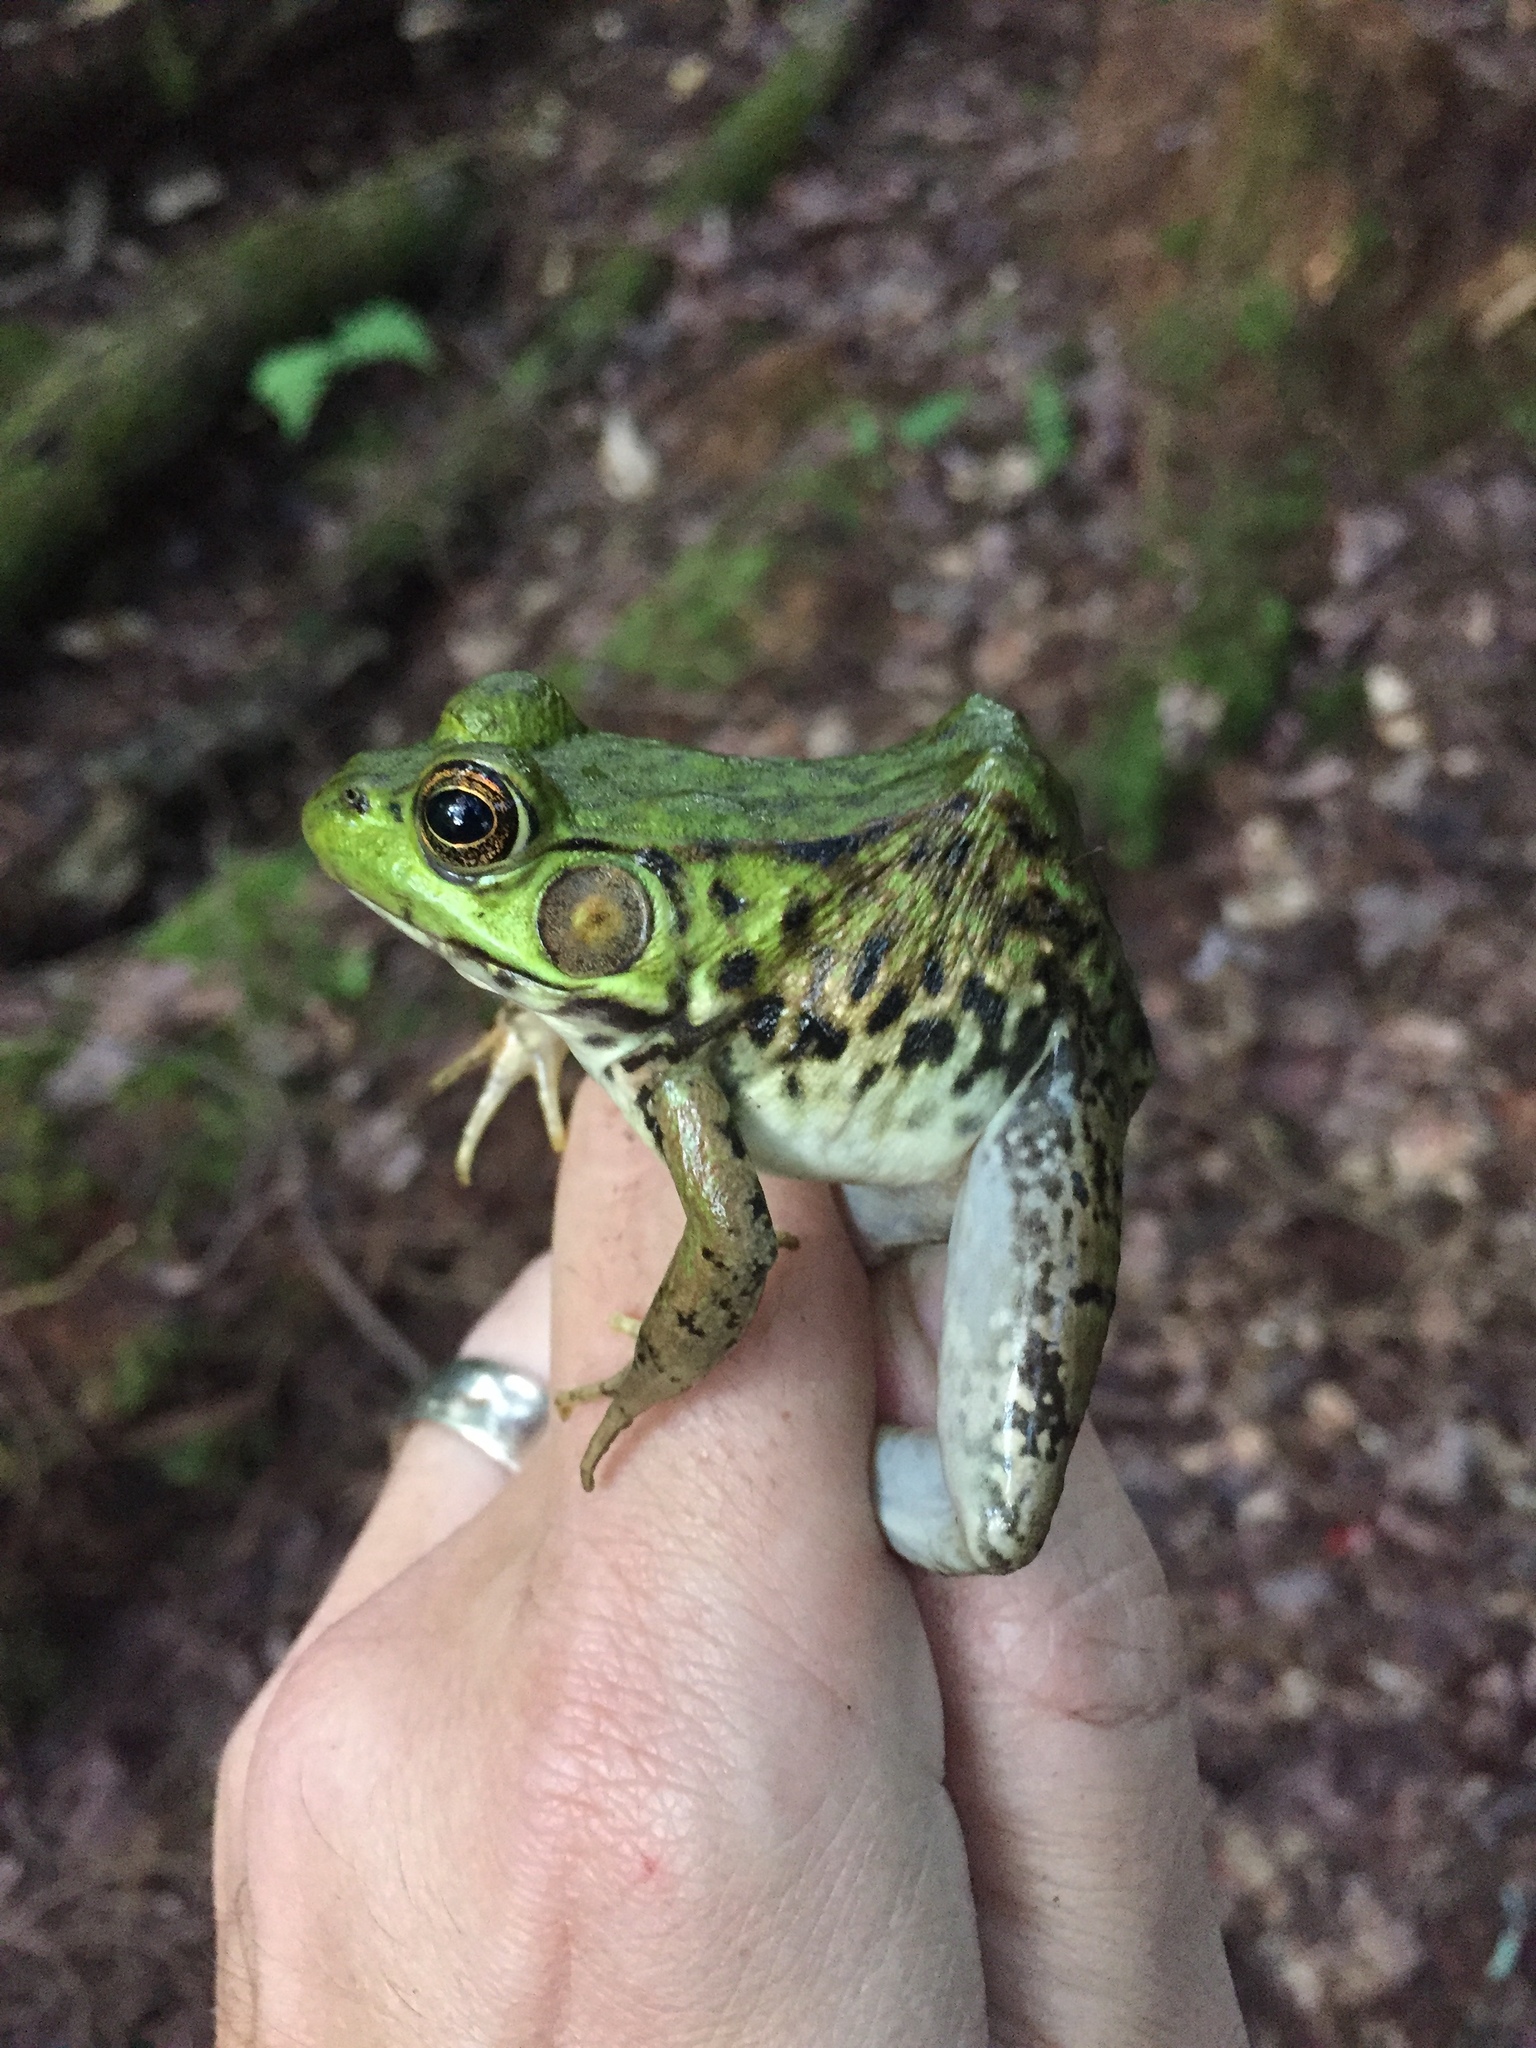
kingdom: Animalia
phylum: Chordata
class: Amphibia
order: Anura
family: Ranidae
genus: Lithobates
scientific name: Lithobates clamitans
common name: Green frog
